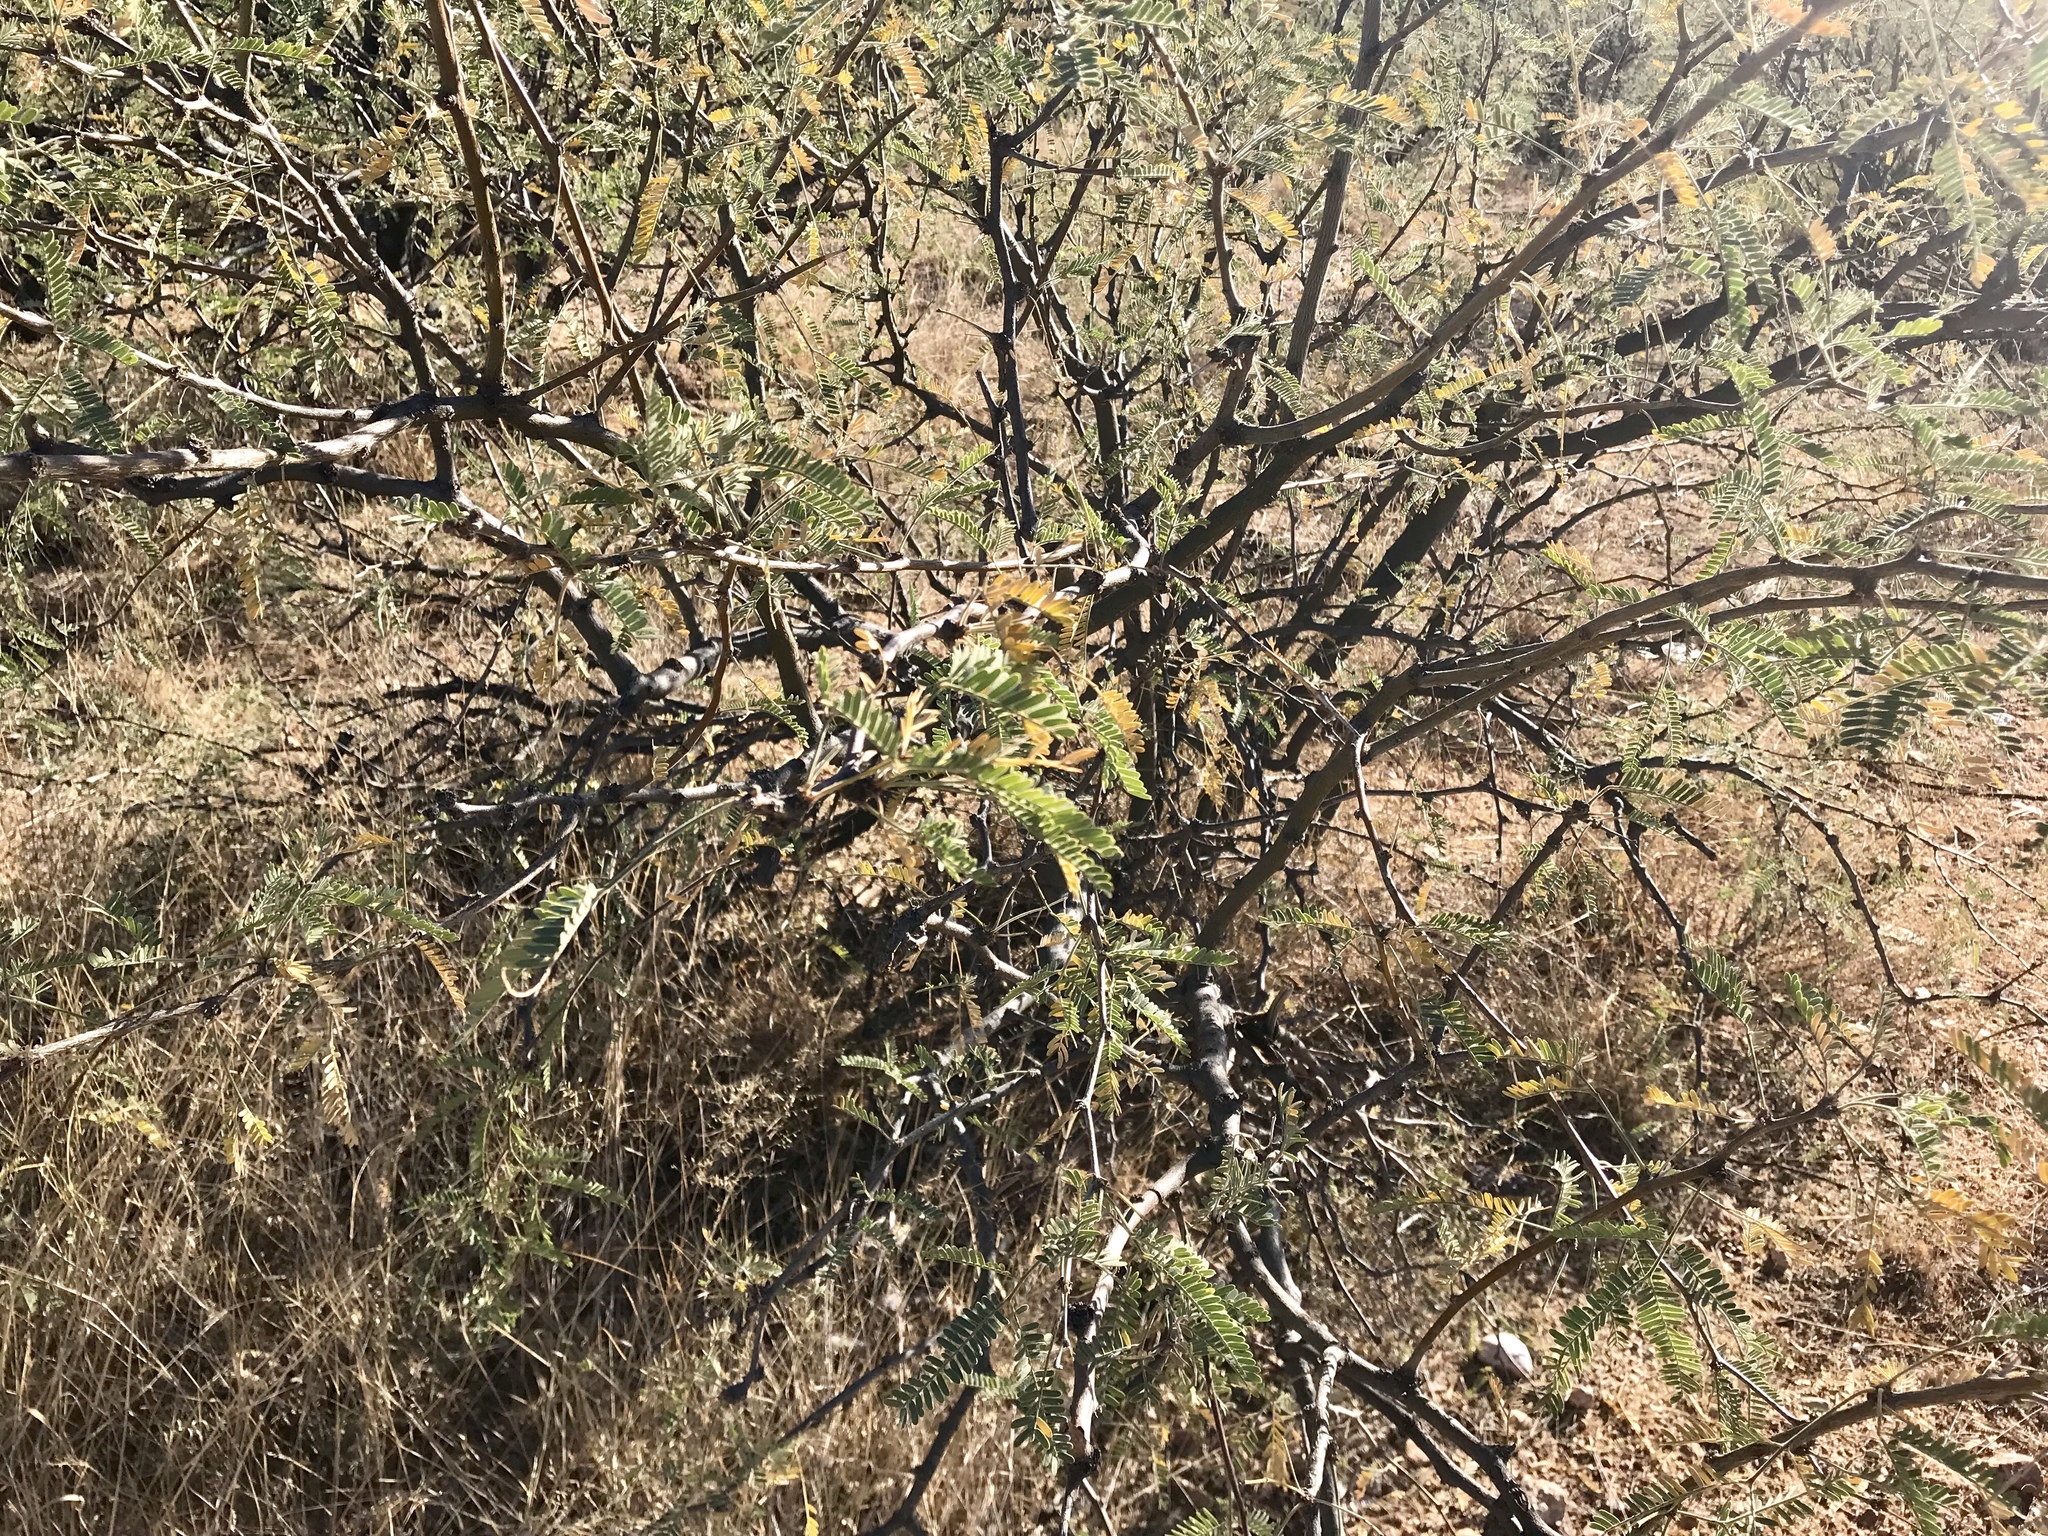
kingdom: Plantae
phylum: Tracheophyta
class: Magnoliopsida
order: Fabales
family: Fabaceae
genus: Prosopis
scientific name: Prosopis velutina
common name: Velvet mesquite
